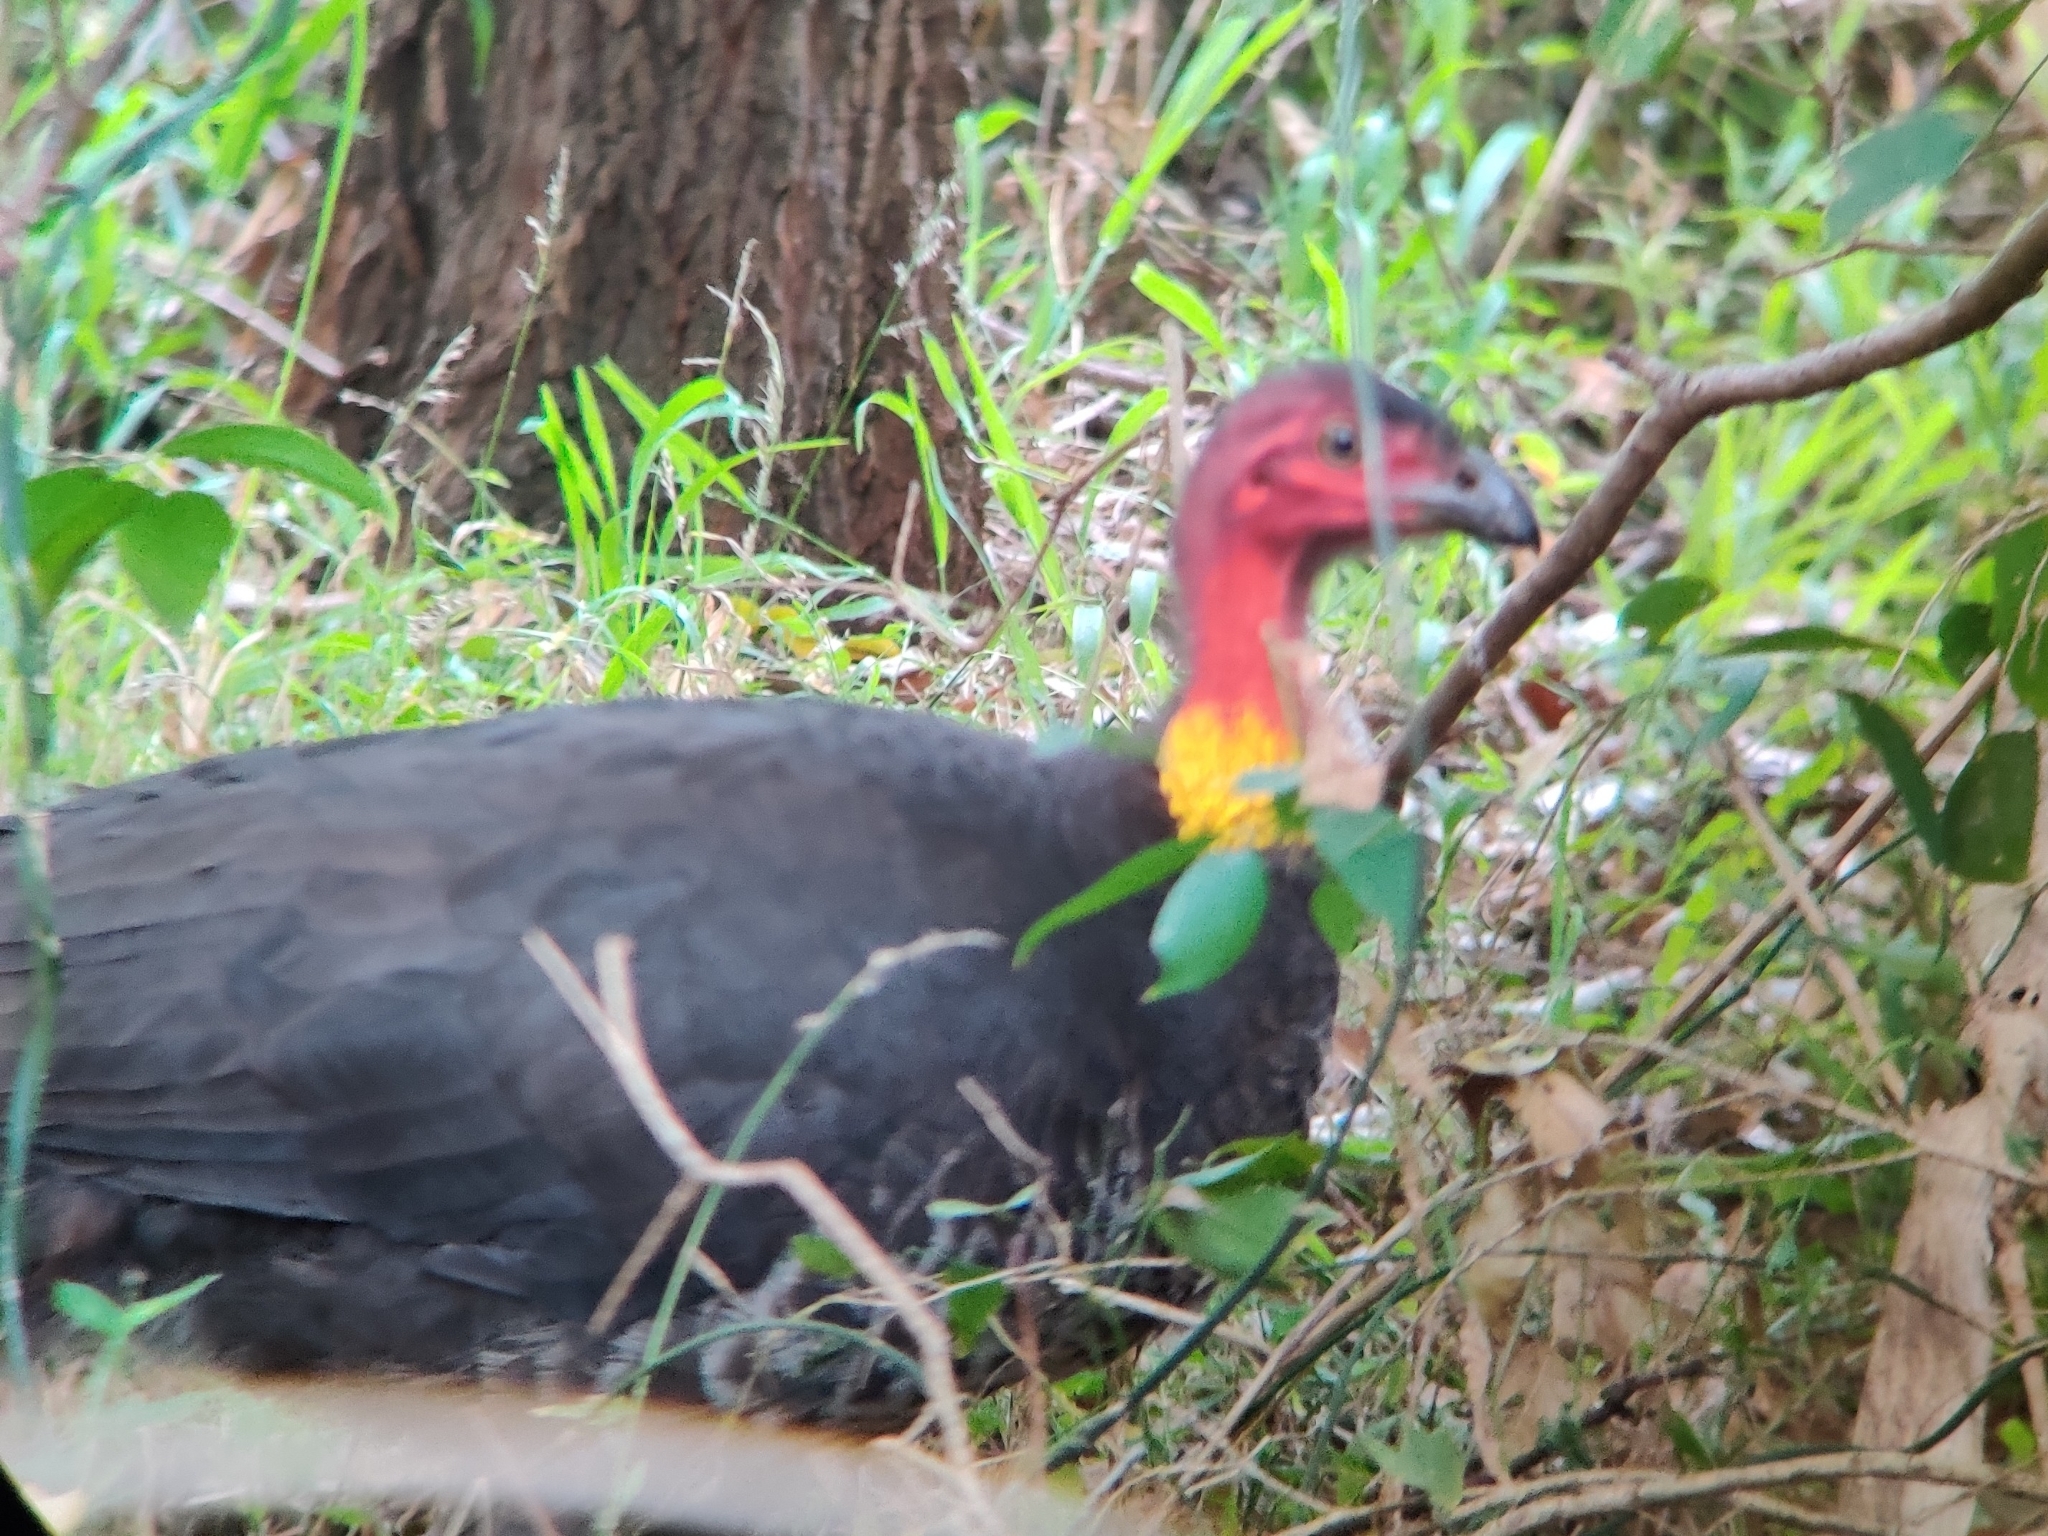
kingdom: Animalia
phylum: Chordata
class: Aves
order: Galliformes
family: Megapodiidae
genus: Alectura
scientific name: Alectura lathami
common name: Australian brushturkey
